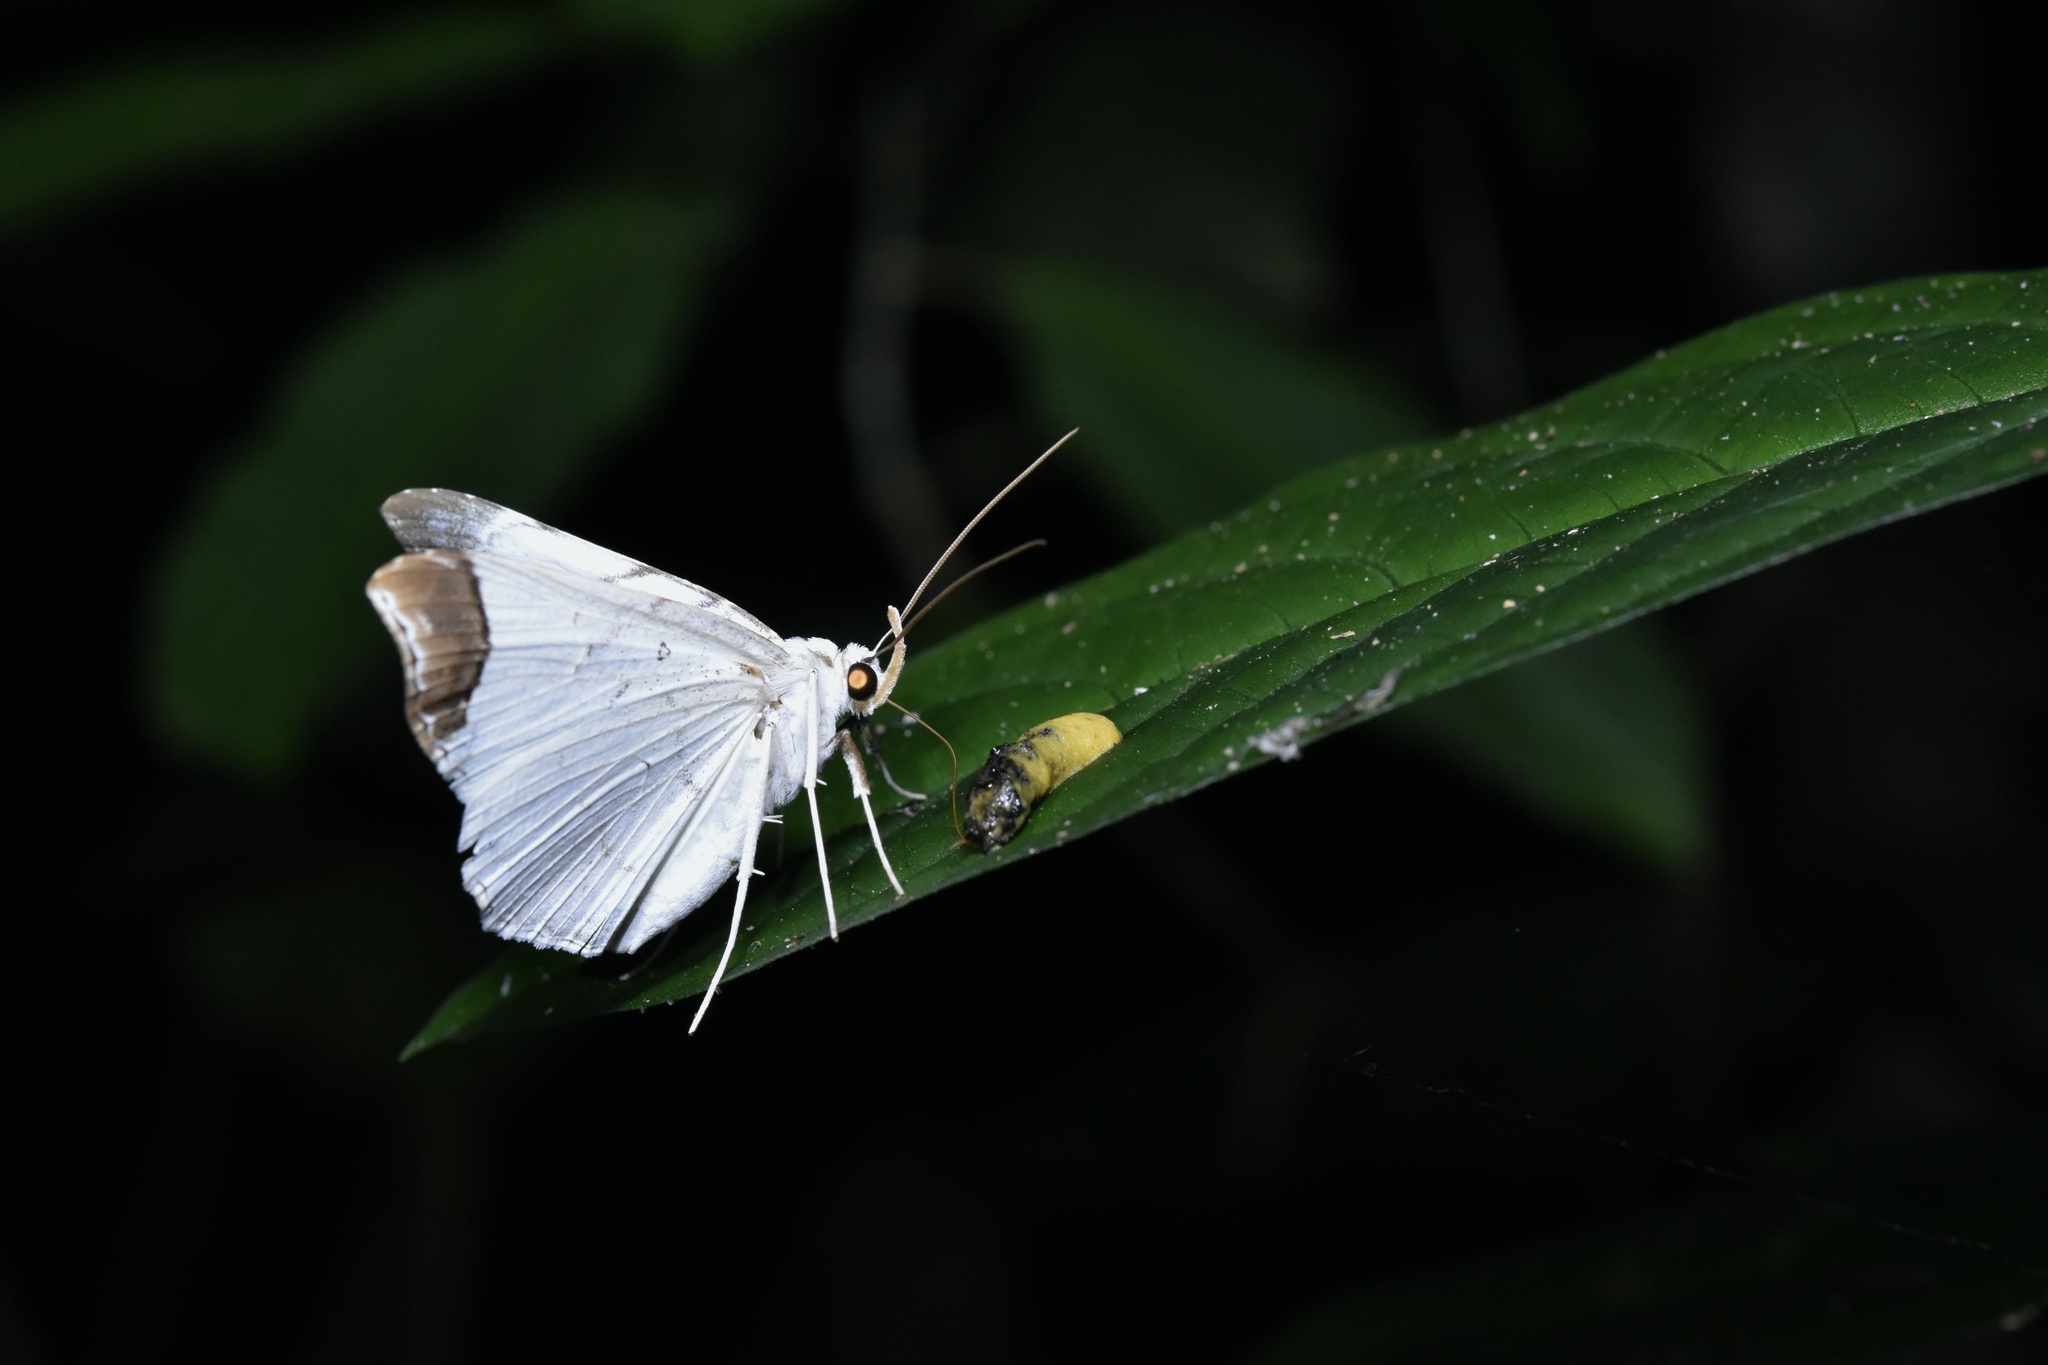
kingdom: Animalia
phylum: Arthropoda
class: Insecta
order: Lepidoptera
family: Erebidae
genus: Macrodes
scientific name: Macrodes columbalis
